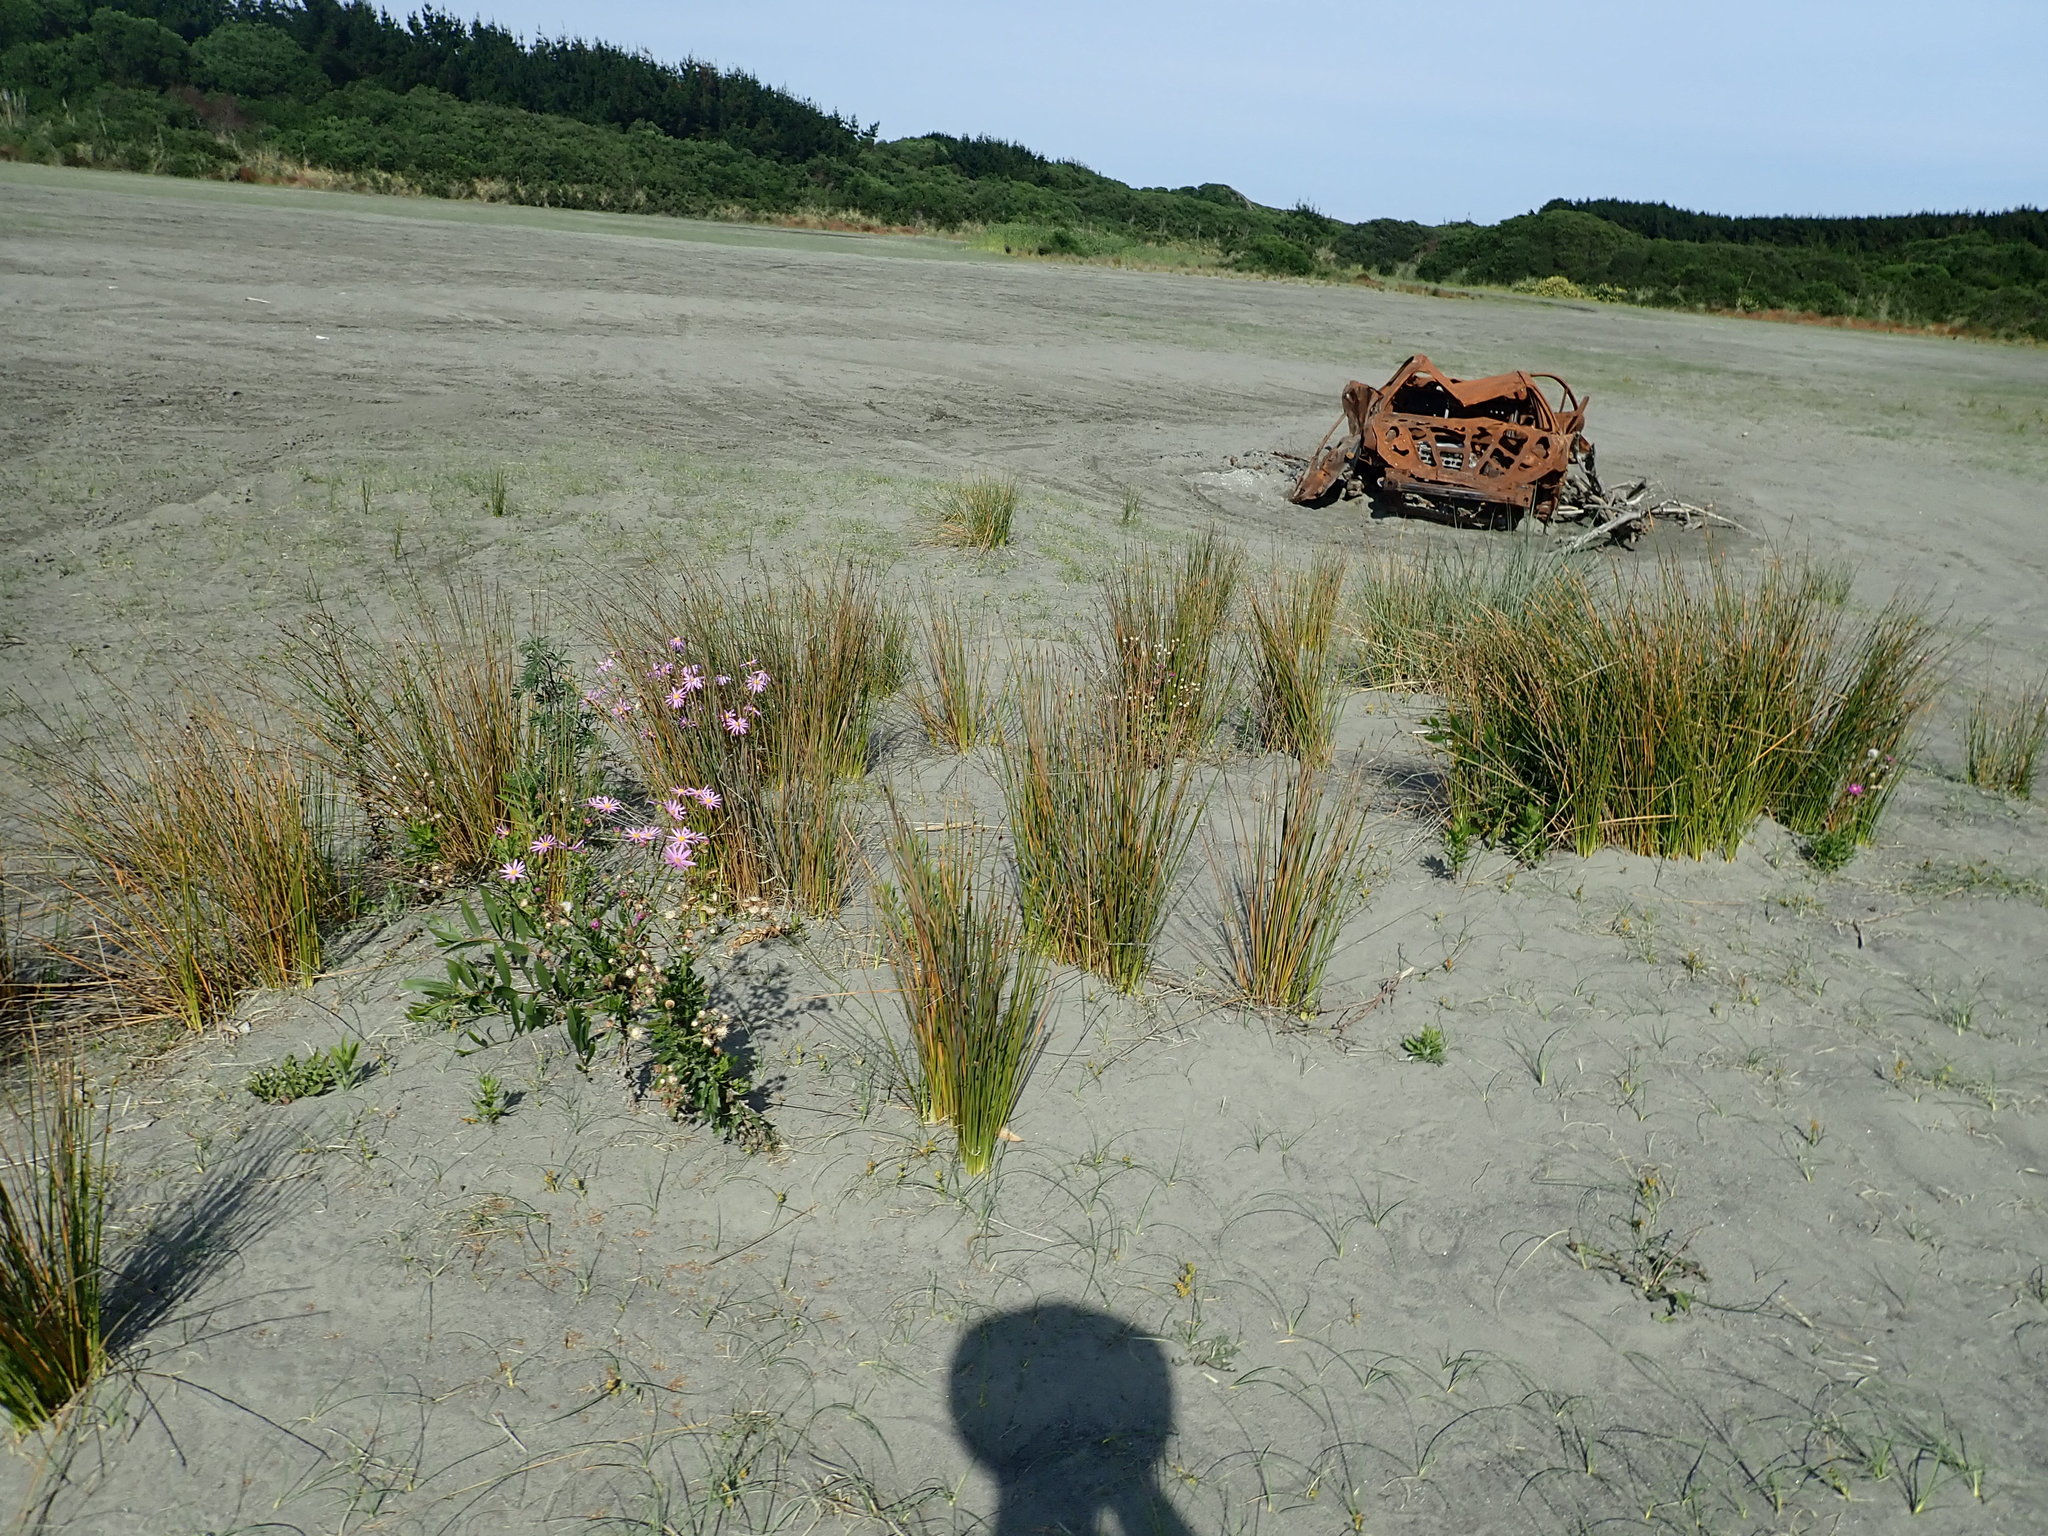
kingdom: Plantae
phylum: Tracheophyta
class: Magnoliopsida
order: Asterales
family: Asteraceae
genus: Senecio
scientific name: Senecio glastifolius
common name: Woad-leaved ragwort
